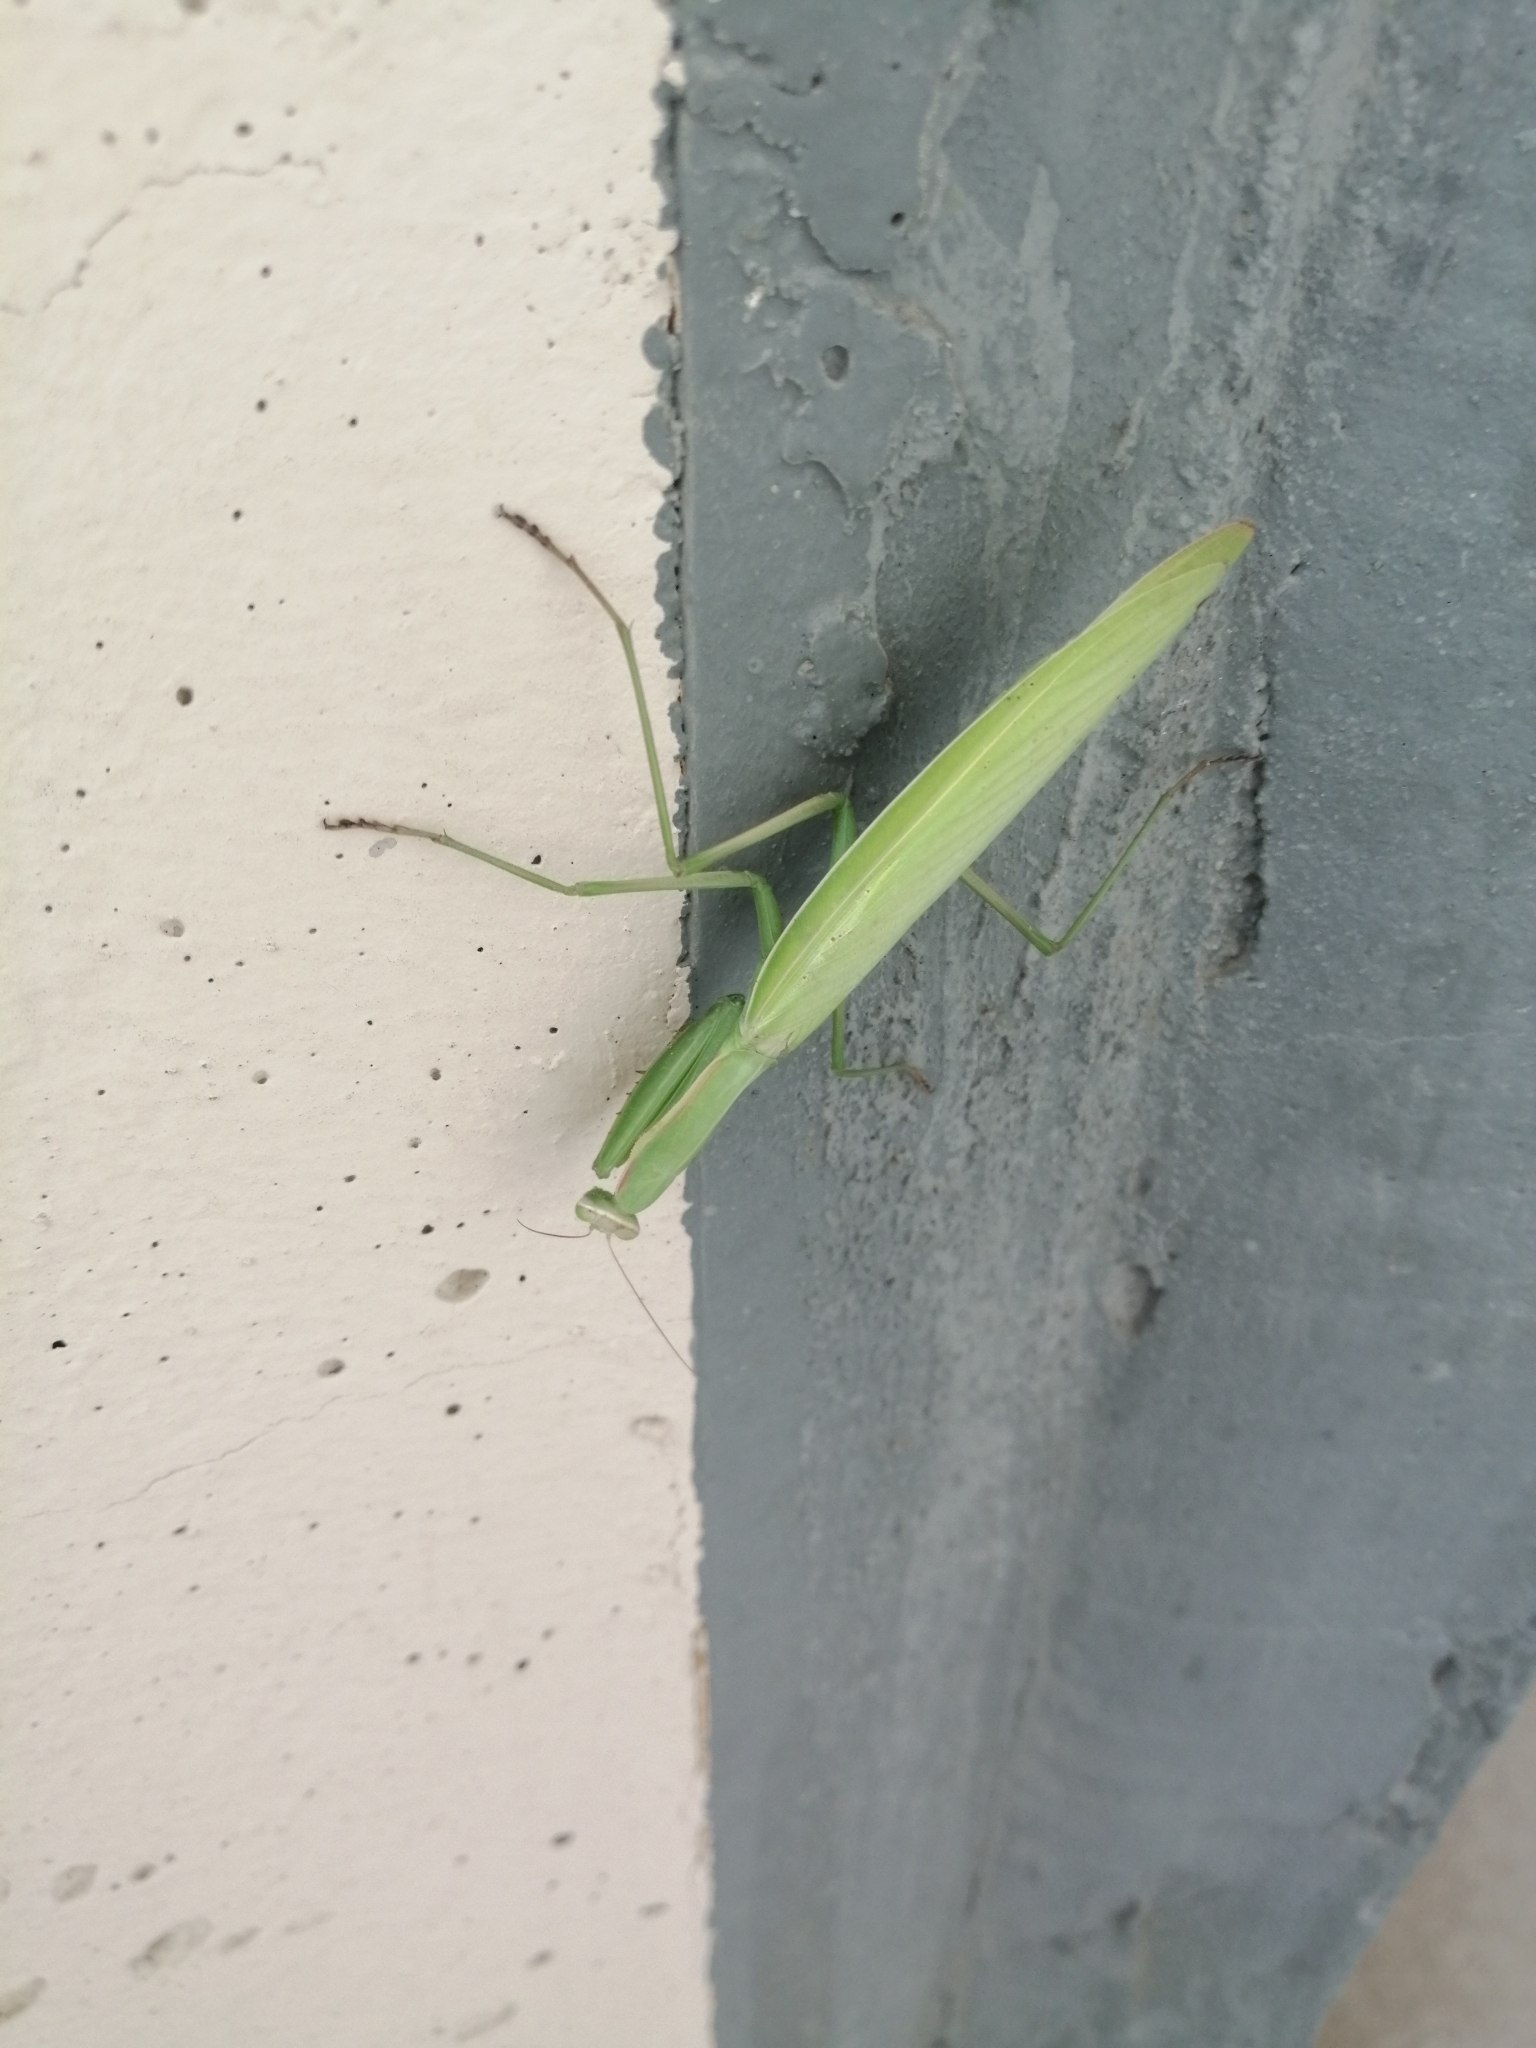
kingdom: Animalia
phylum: Arthropoda
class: Insecta
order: Mantodea
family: Mantidae
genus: Mantis
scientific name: Mantis religiosa
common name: Praying mantis
